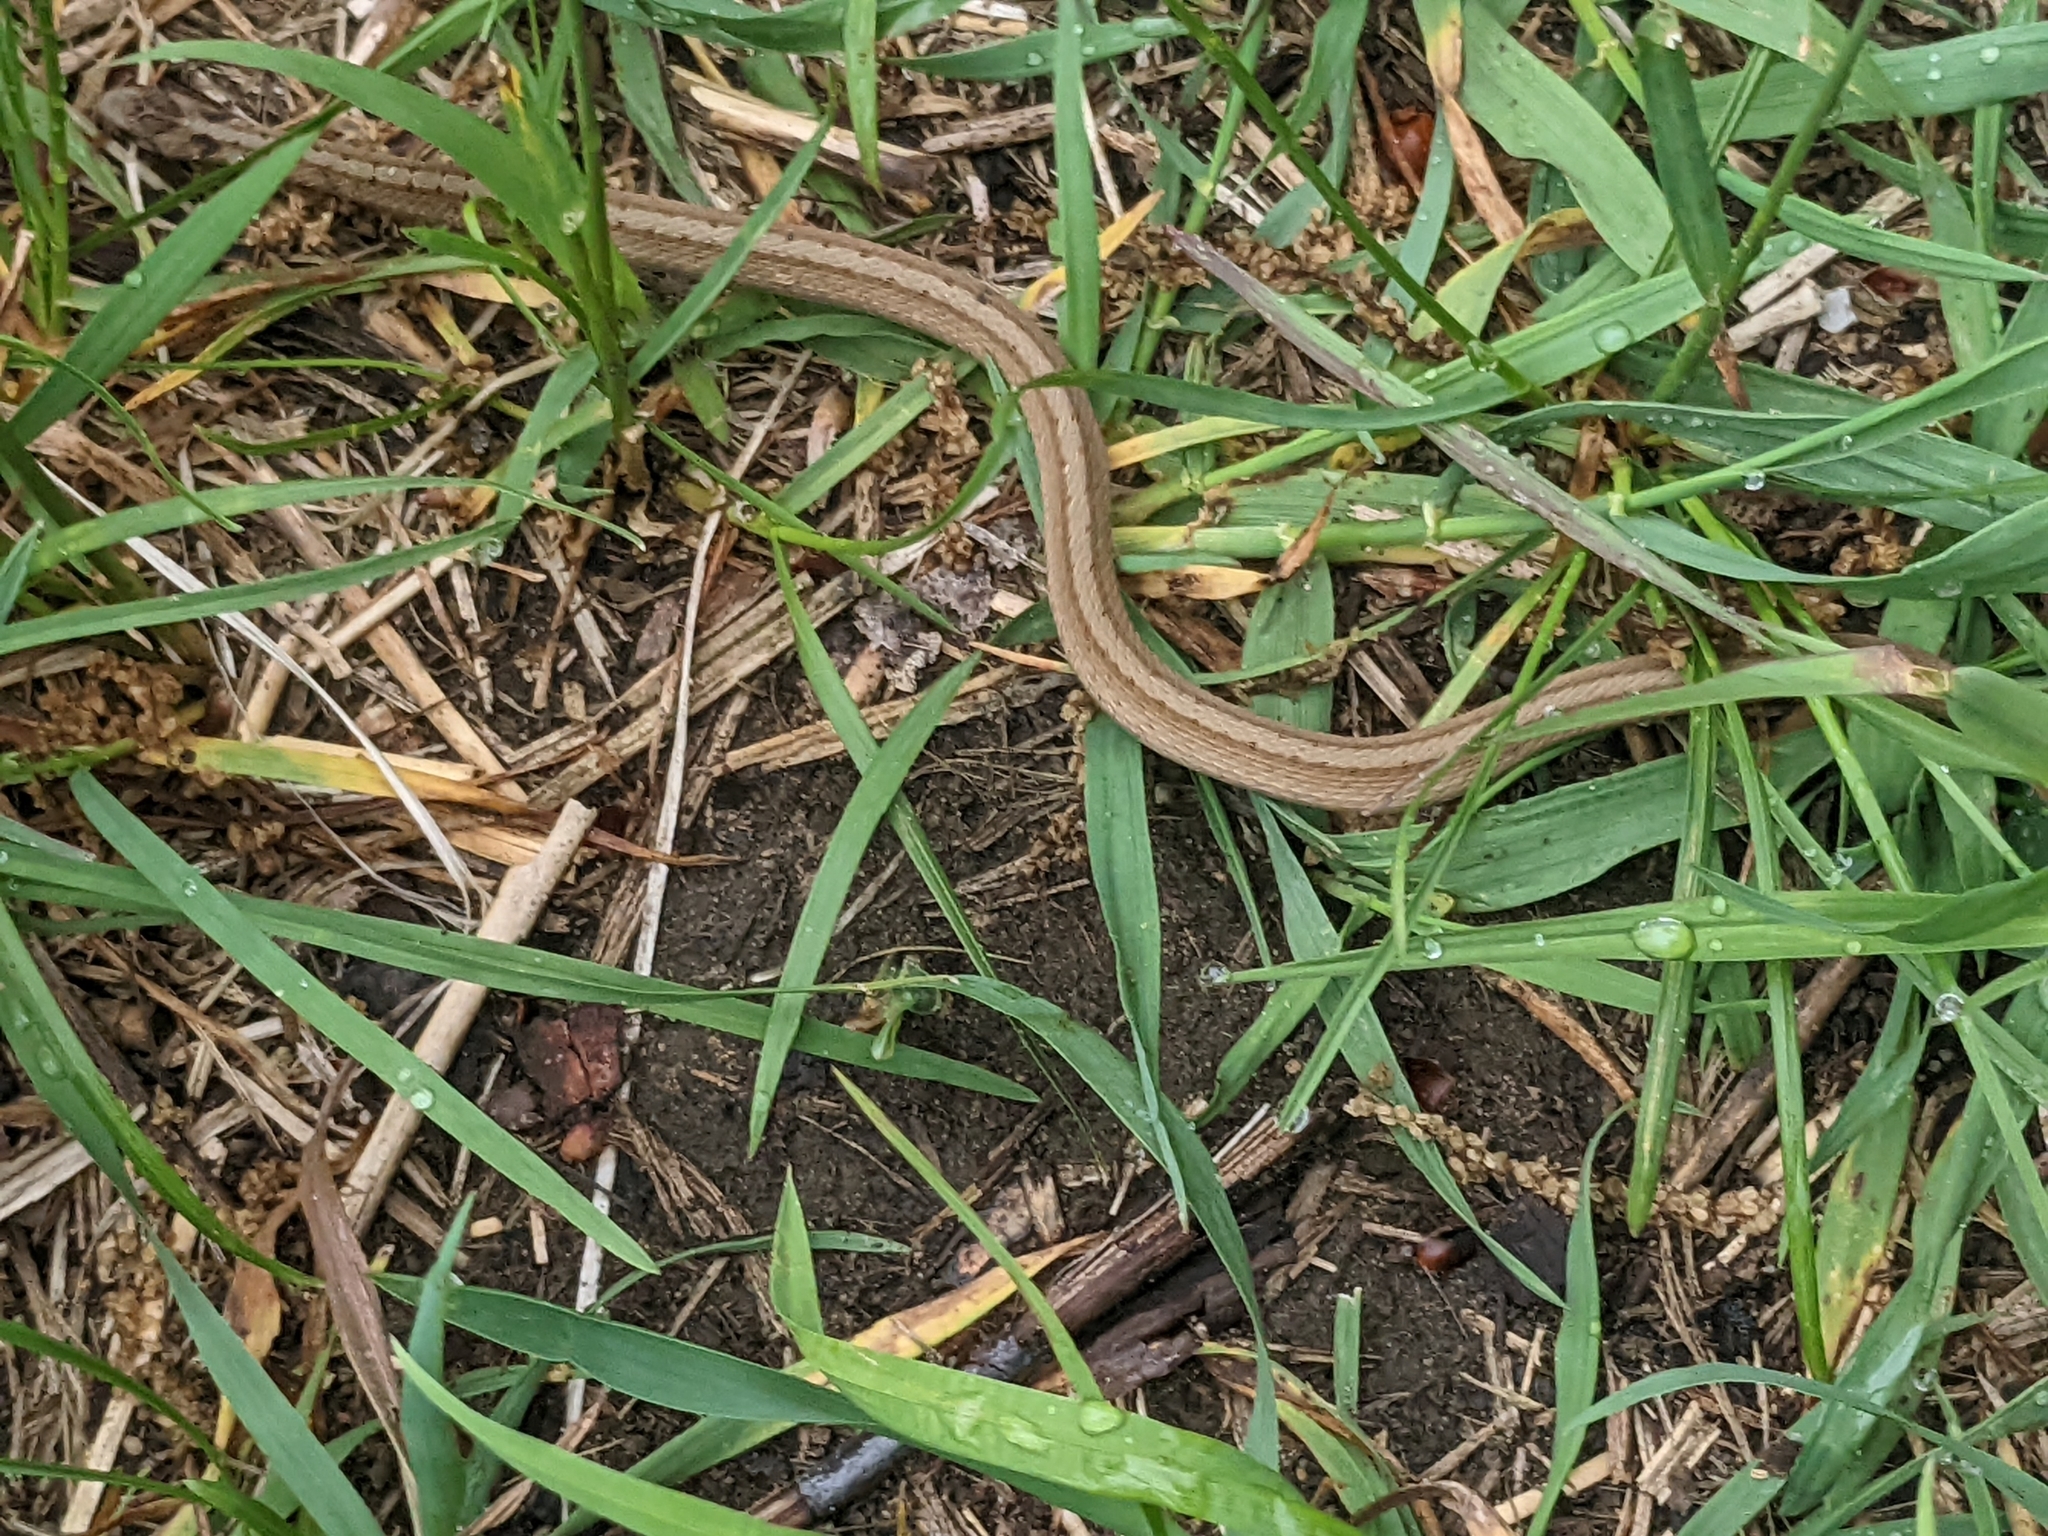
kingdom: Animalia
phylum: Chordata
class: Squamata
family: Colubridae
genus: Storeria
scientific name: Storeria dekayi
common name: (dekay’s) brown snake
